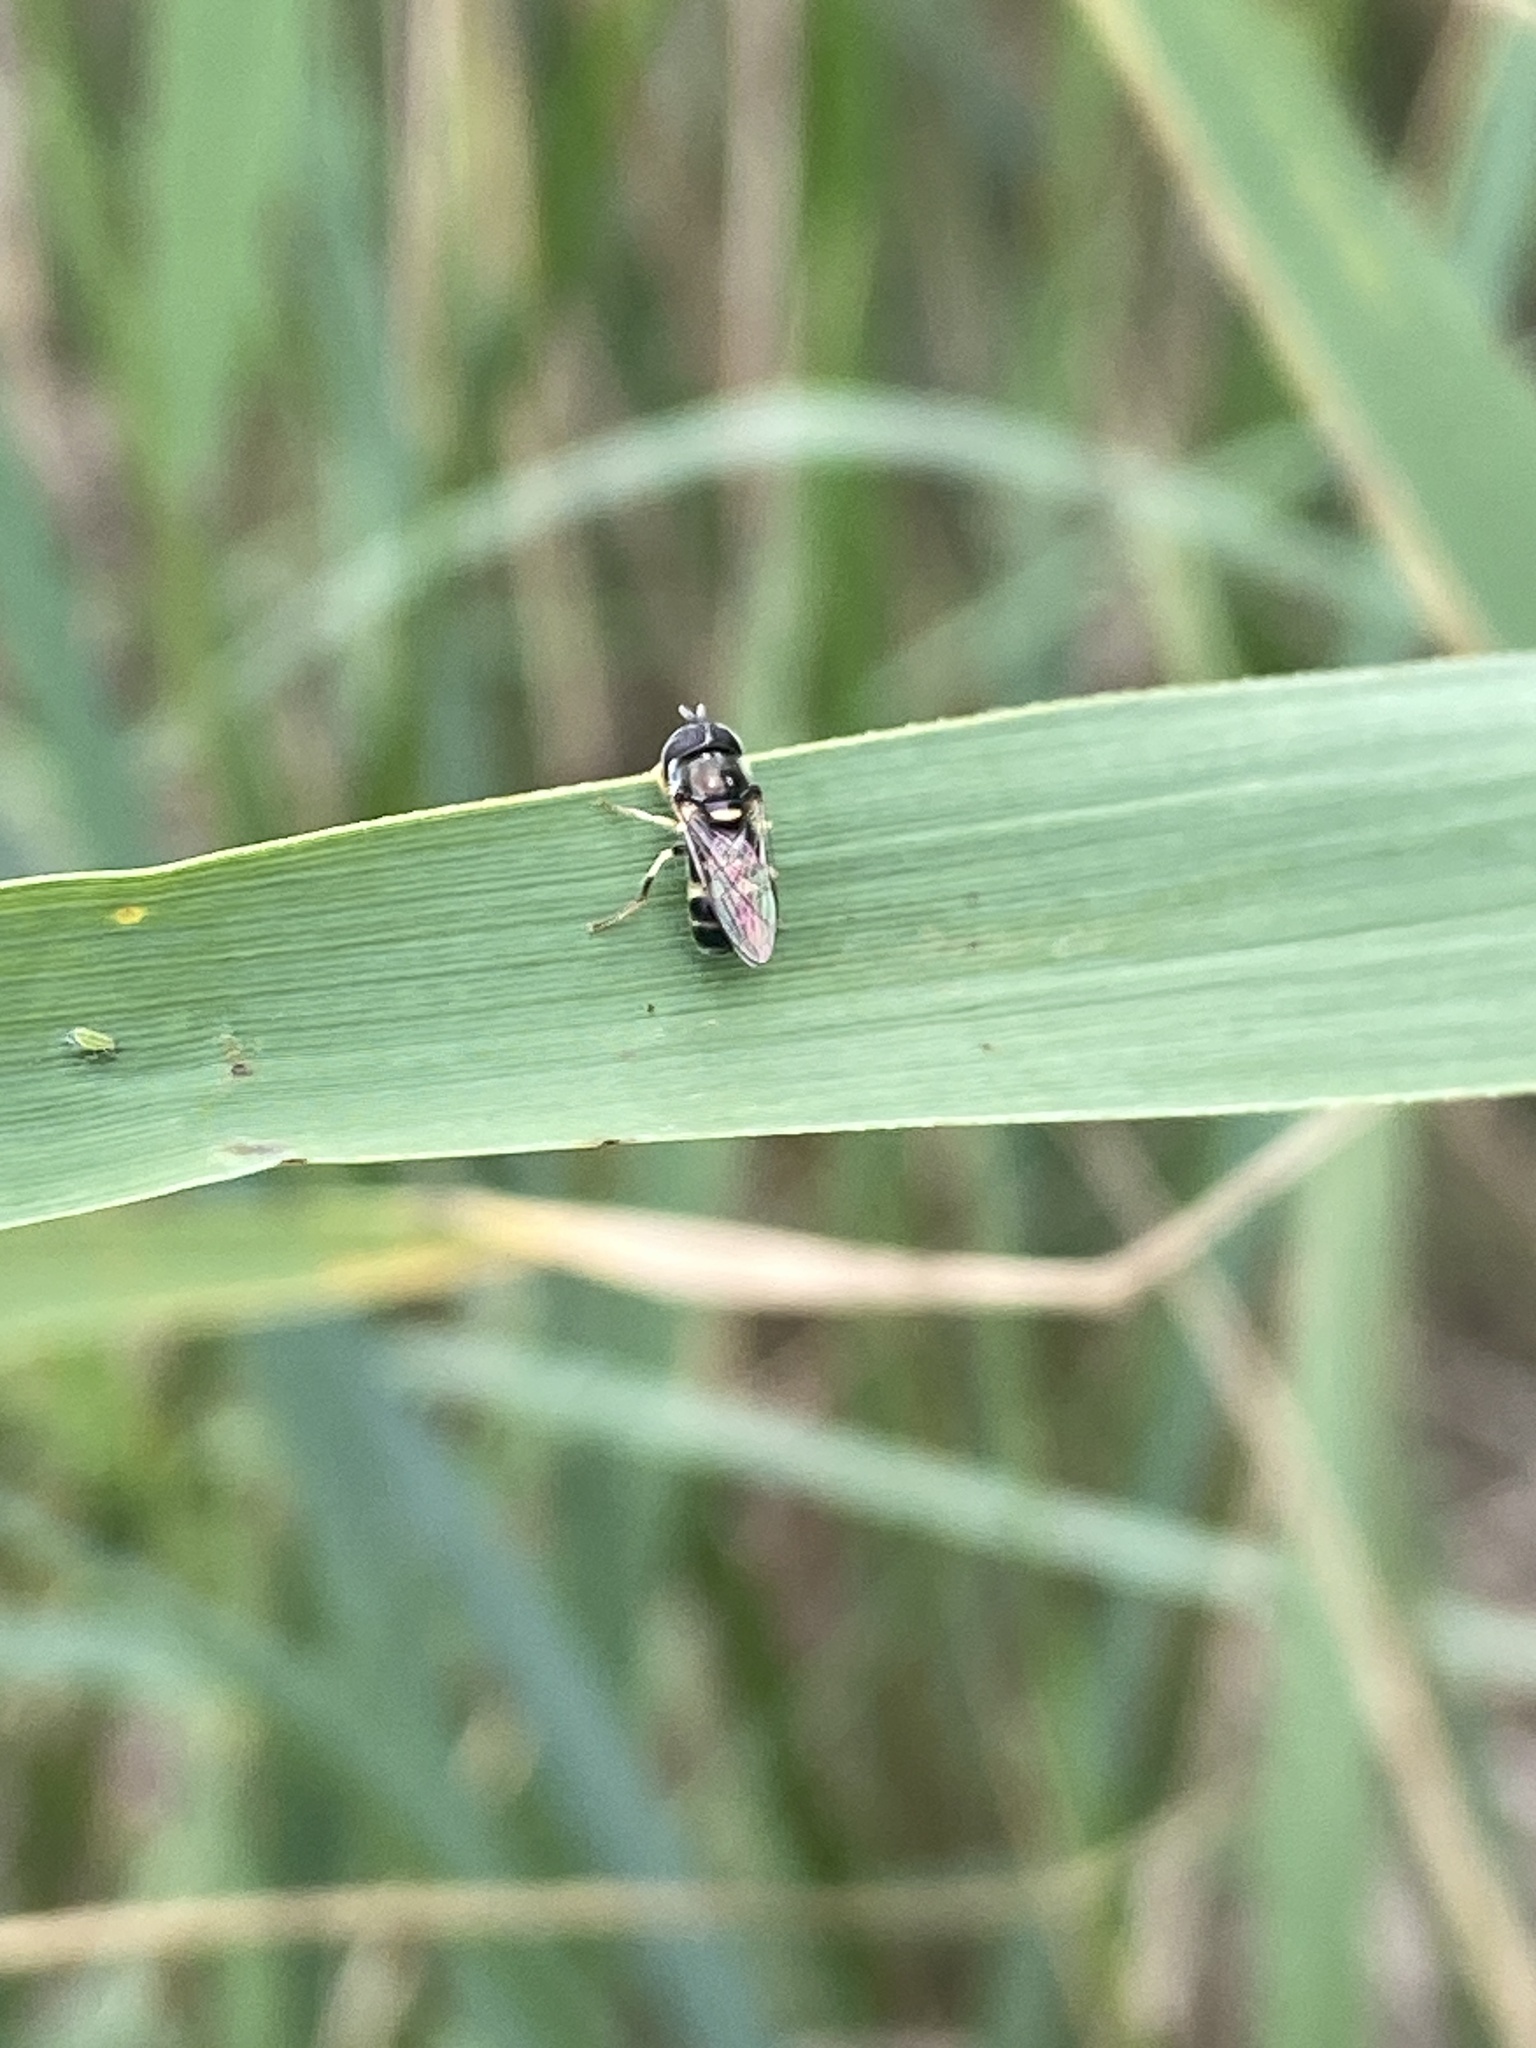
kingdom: Animalia
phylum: Arthropoda
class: Insecta
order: Diptera
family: Syrphidae
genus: Paragus
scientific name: Paragus quadrifasciatus
